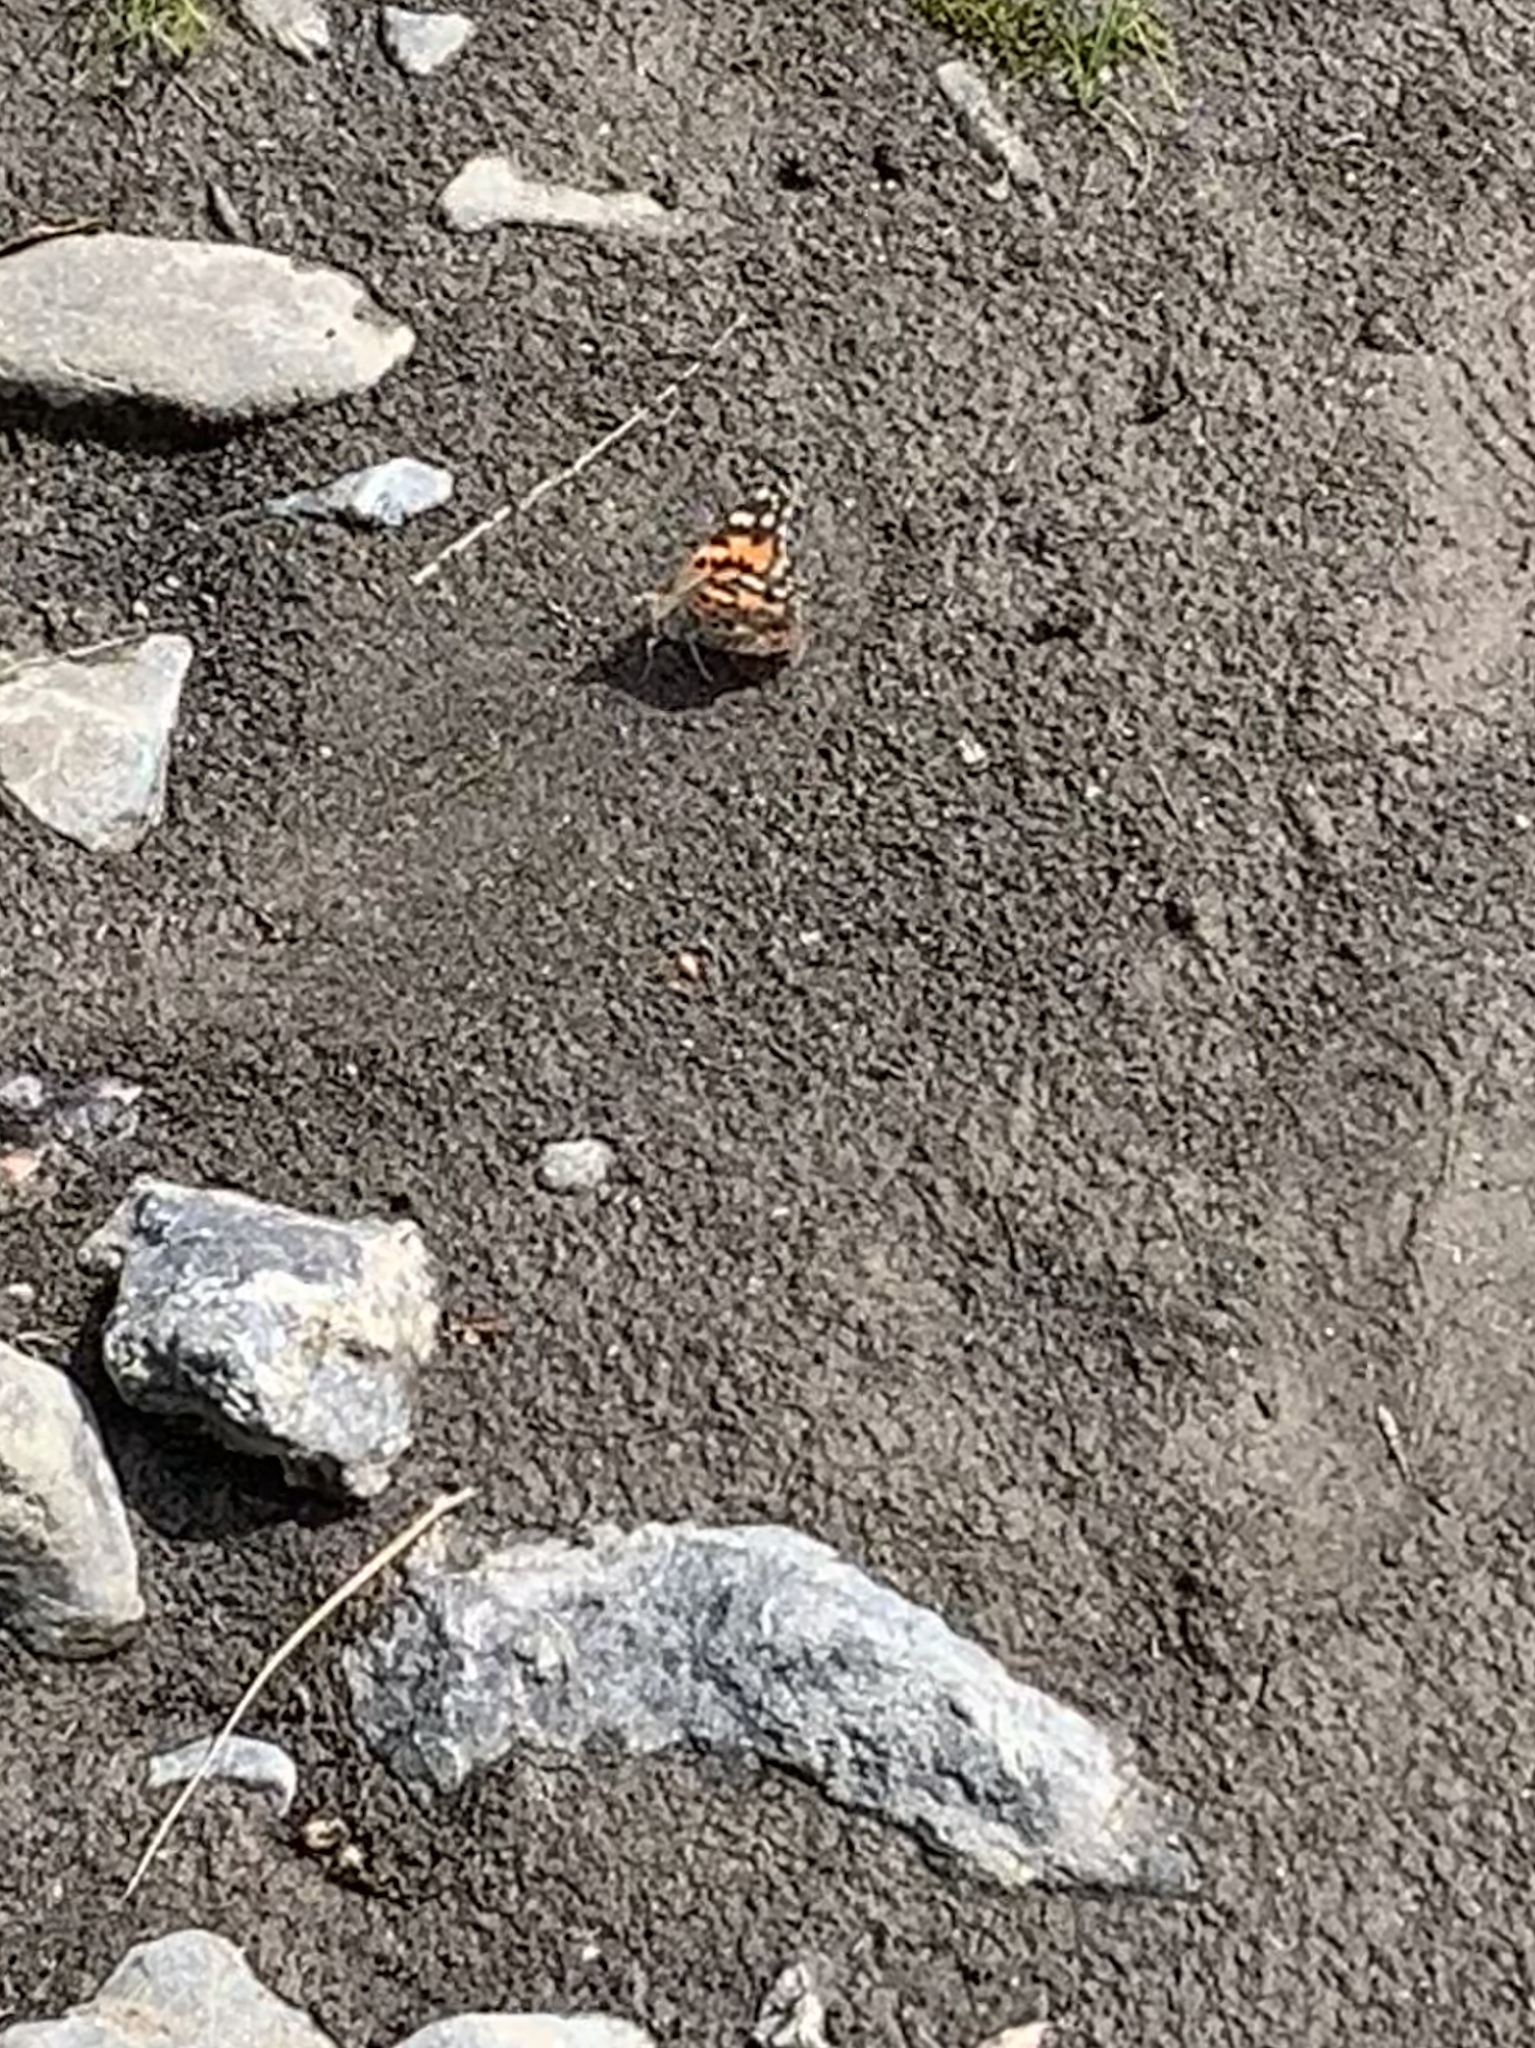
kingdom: Animalia
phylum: Arthropoda
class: Insecta
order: Lepidoptera
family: Nymphalidae
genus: Vanessa
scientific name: Vanessa cardui
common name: Painted lady
